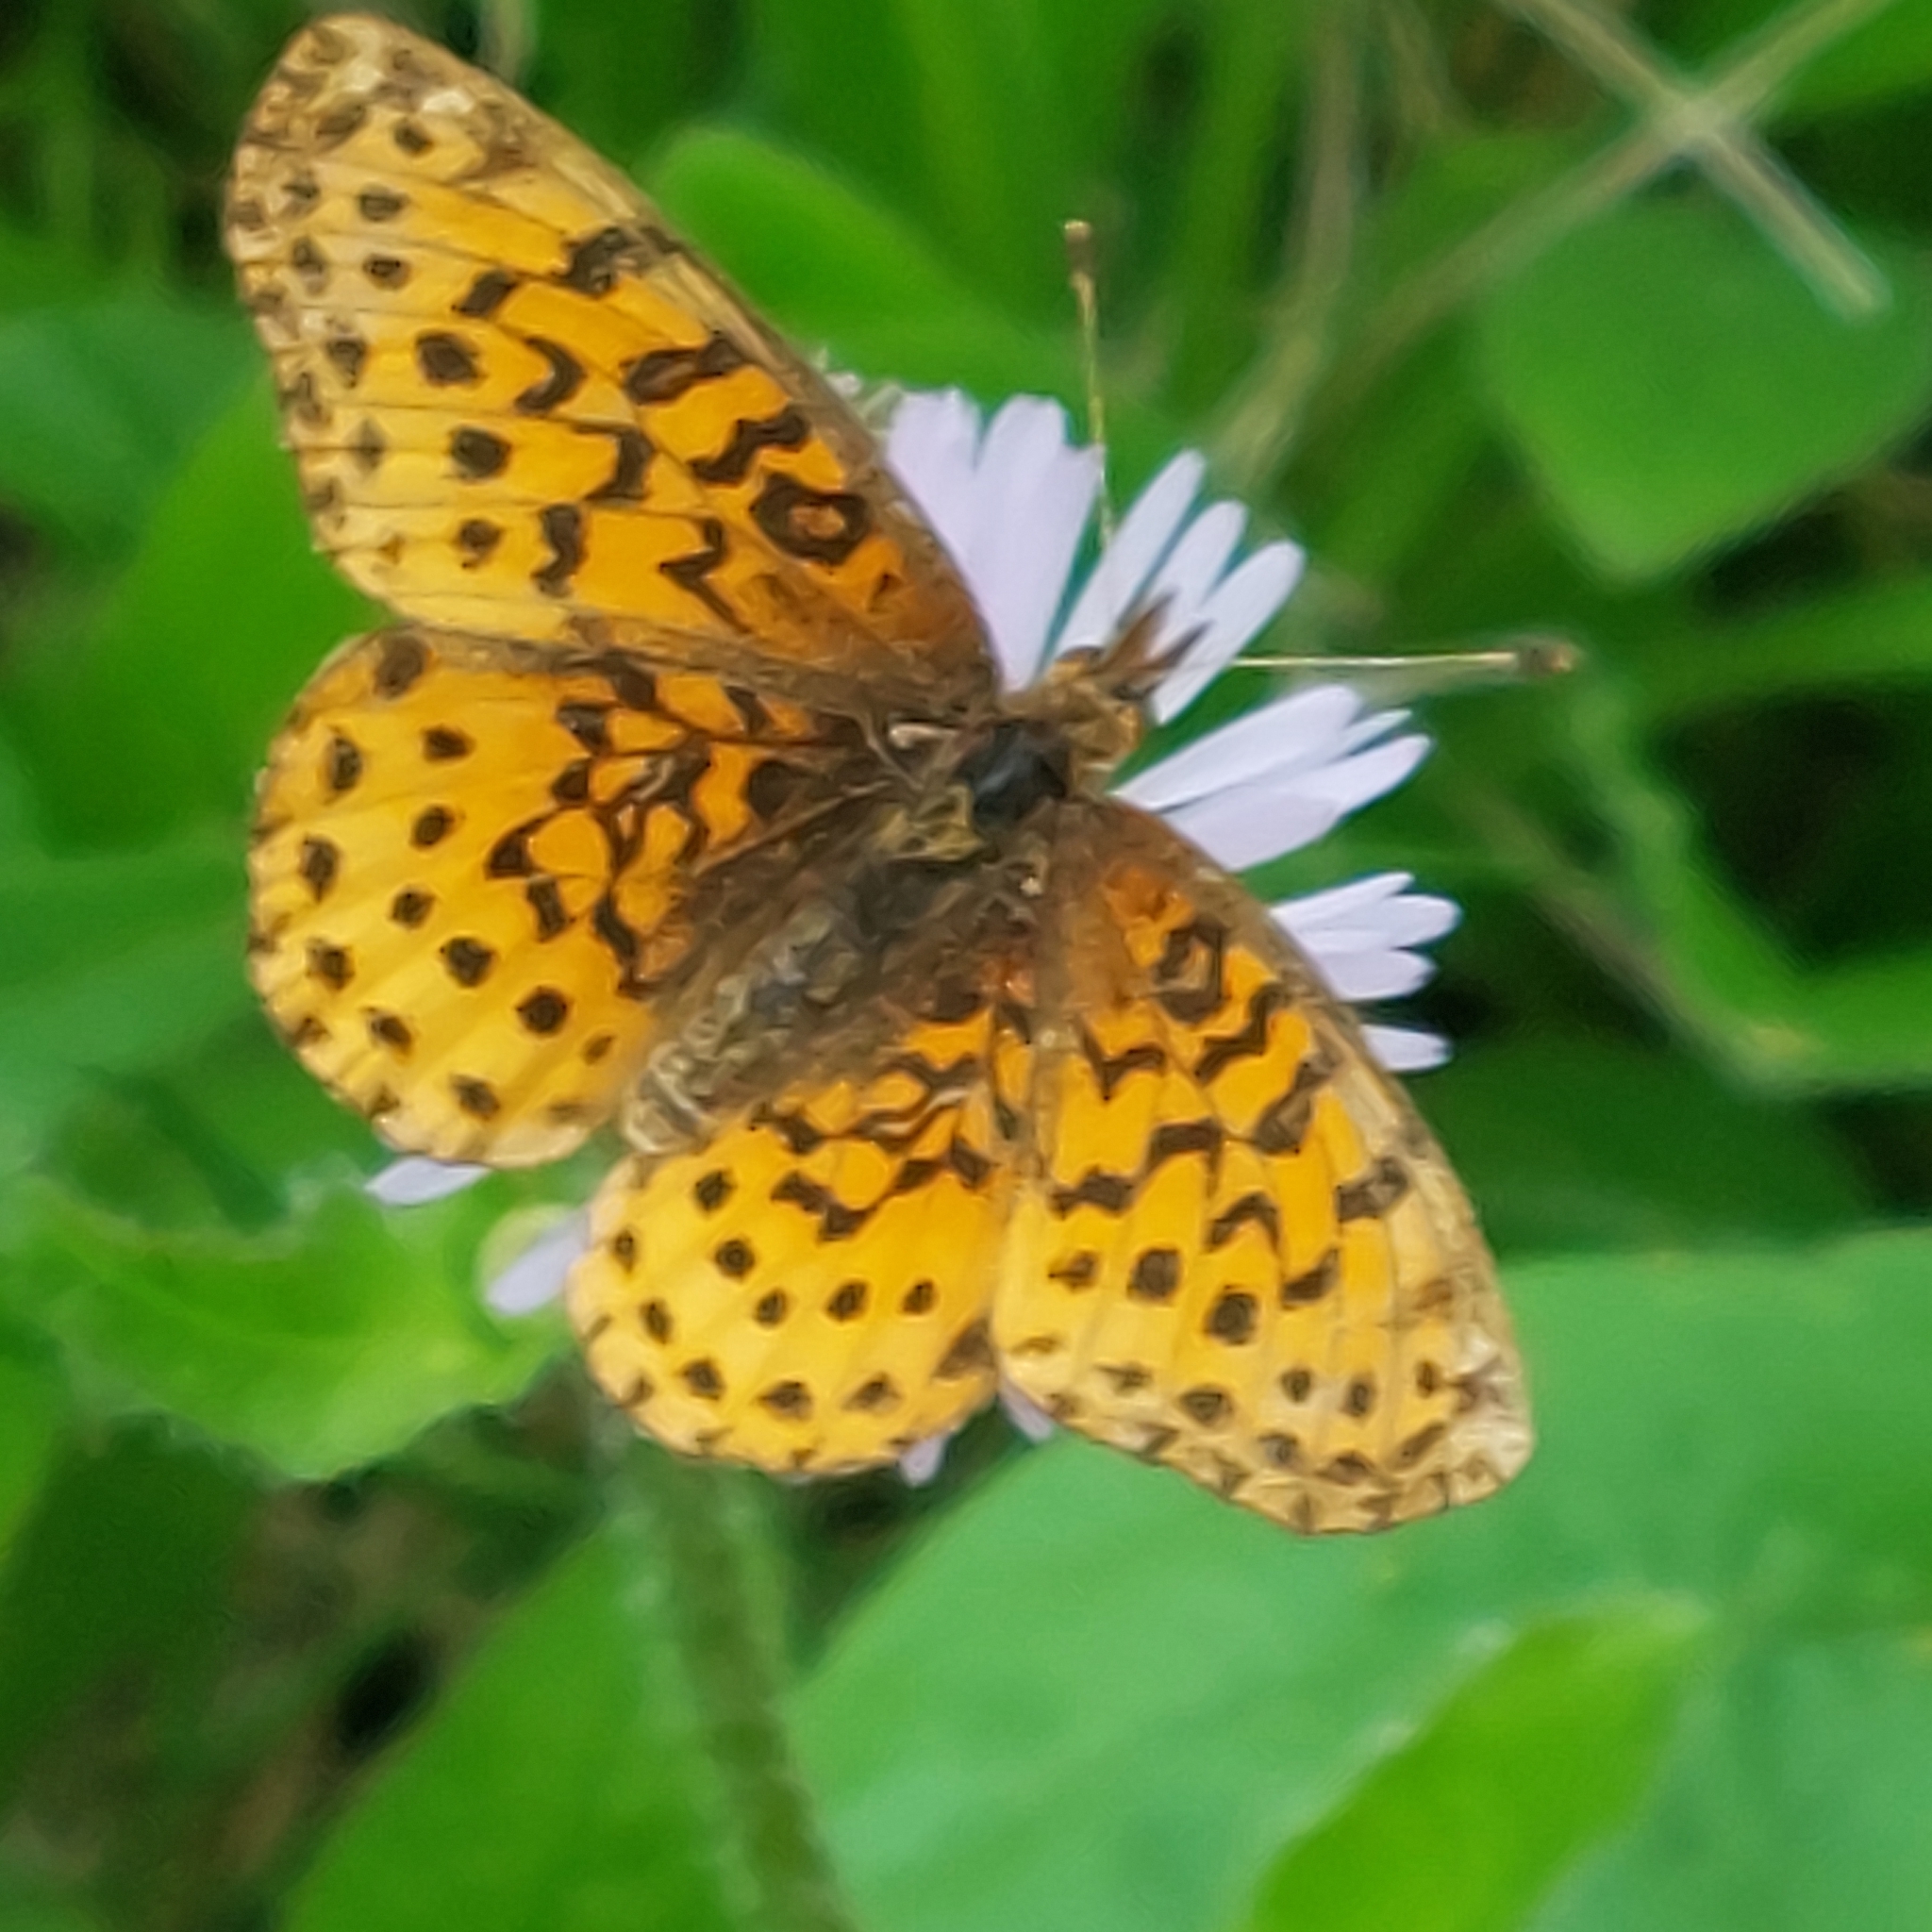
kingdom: Animalia
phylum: Arthropoda
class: Insecta
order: Lepidoptera
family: Nymphalidae
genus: Clossiana
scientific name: Clossiana toddi
